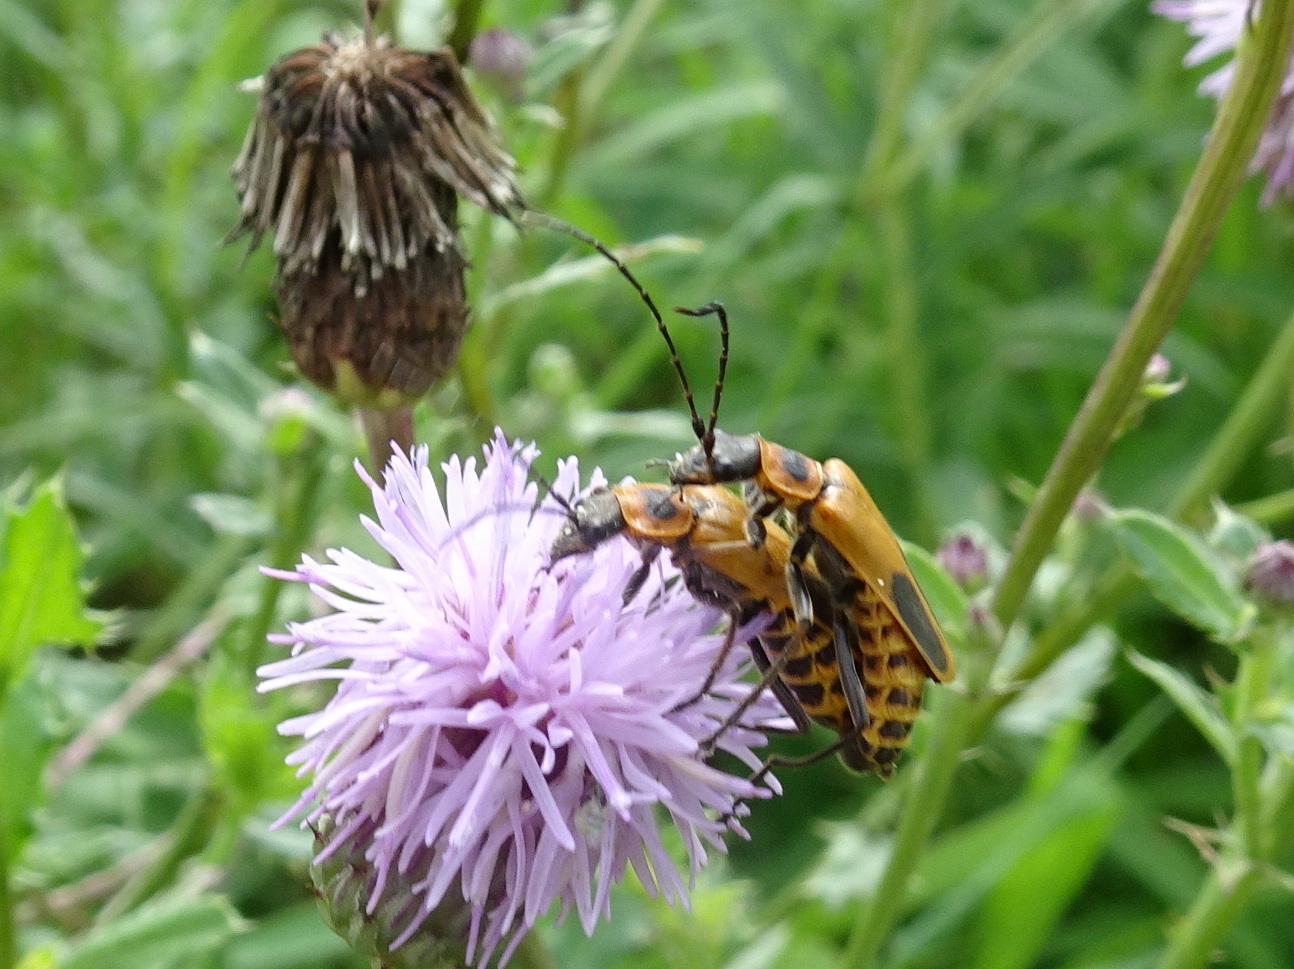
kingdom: Animalia
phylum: Arthropoda
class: Insecta
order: Coleoptera
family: Cantharidae
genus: Chauliognathus
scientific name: Chauliognathus pensylvanicus
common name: Goldenrod soldier beetle
